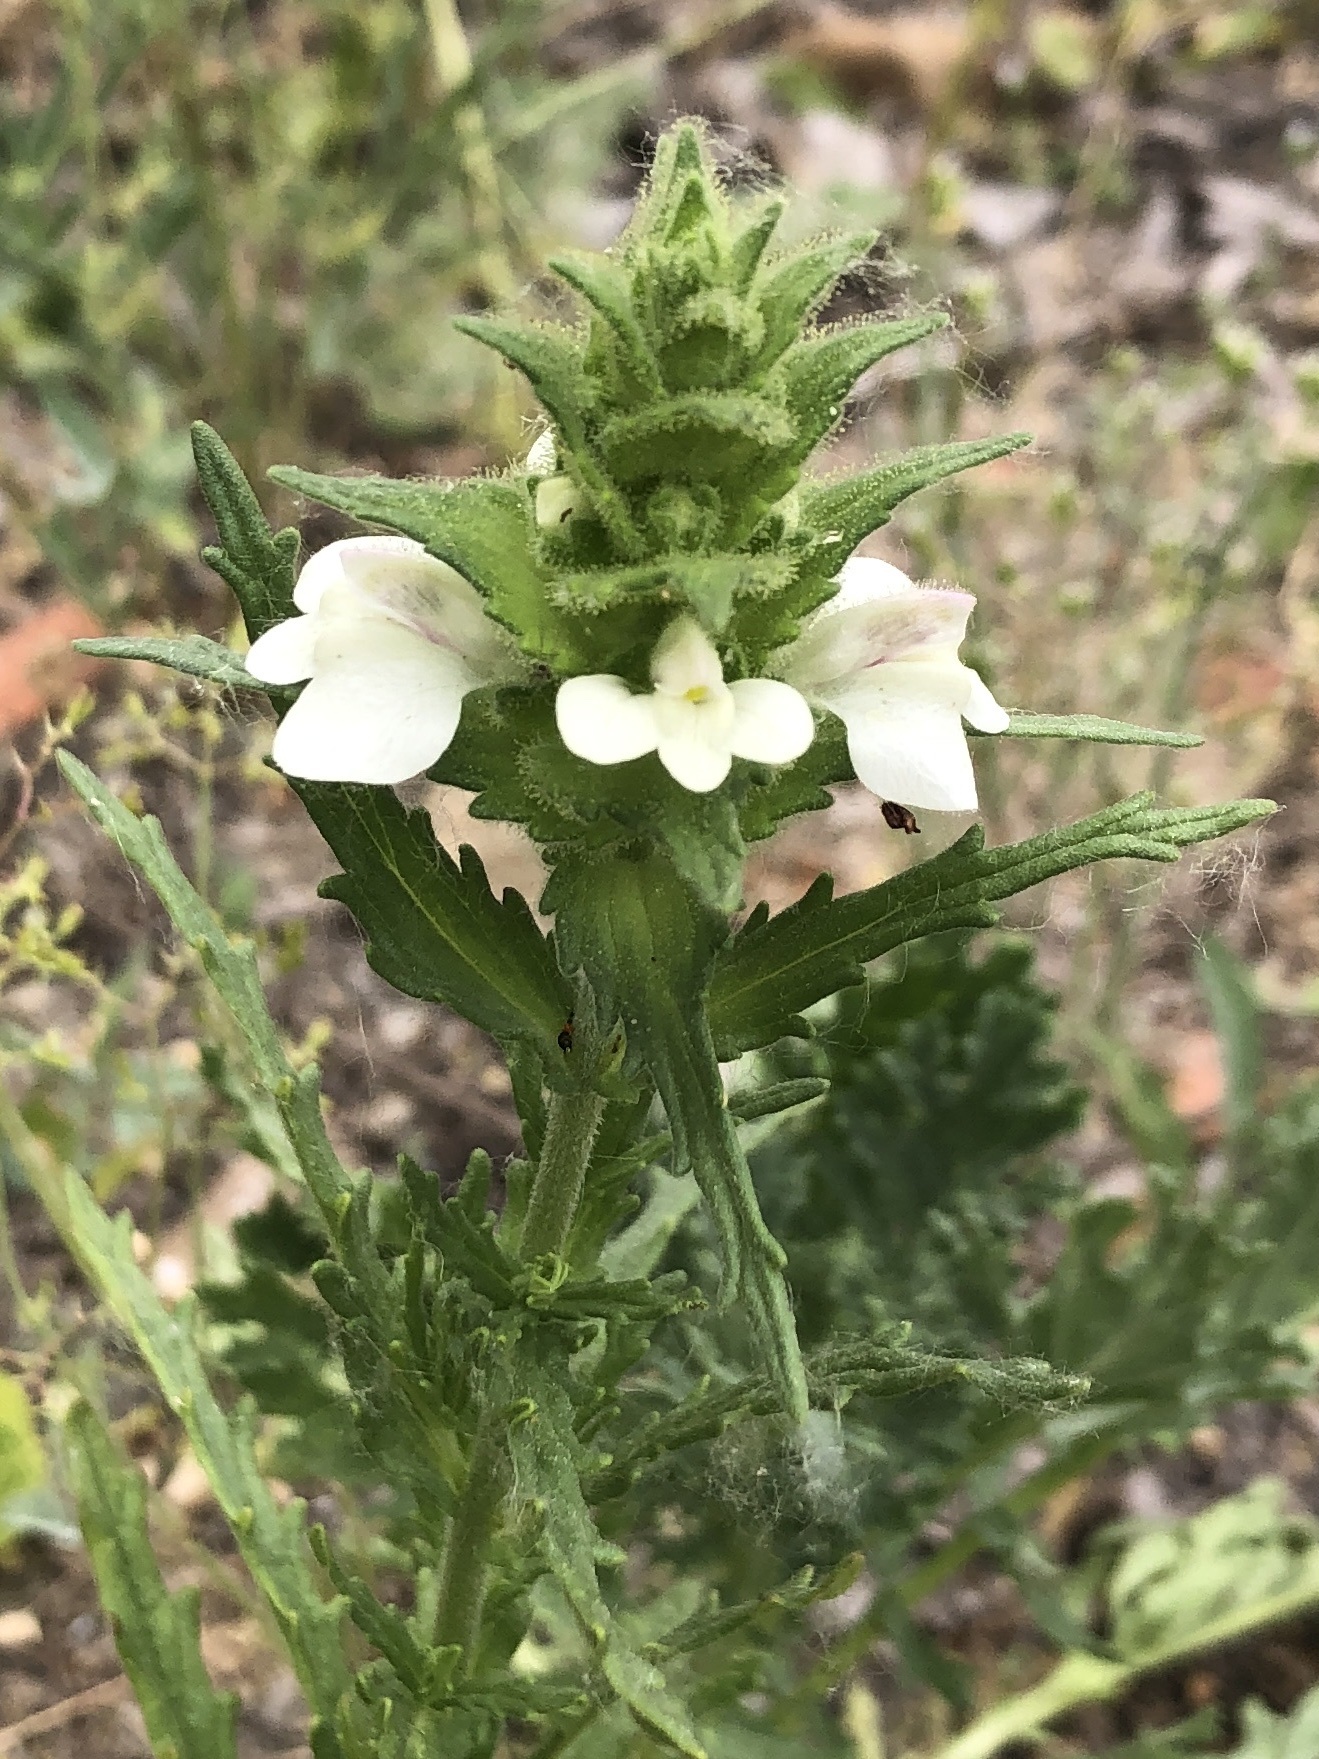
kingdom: Plantae
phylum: Tracheophyta
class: Magnoliopsida
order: Lamiales
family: Orobanchaceae
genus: Bellardia
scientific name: Bellardia trixago
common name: Mediterranean lineseed
